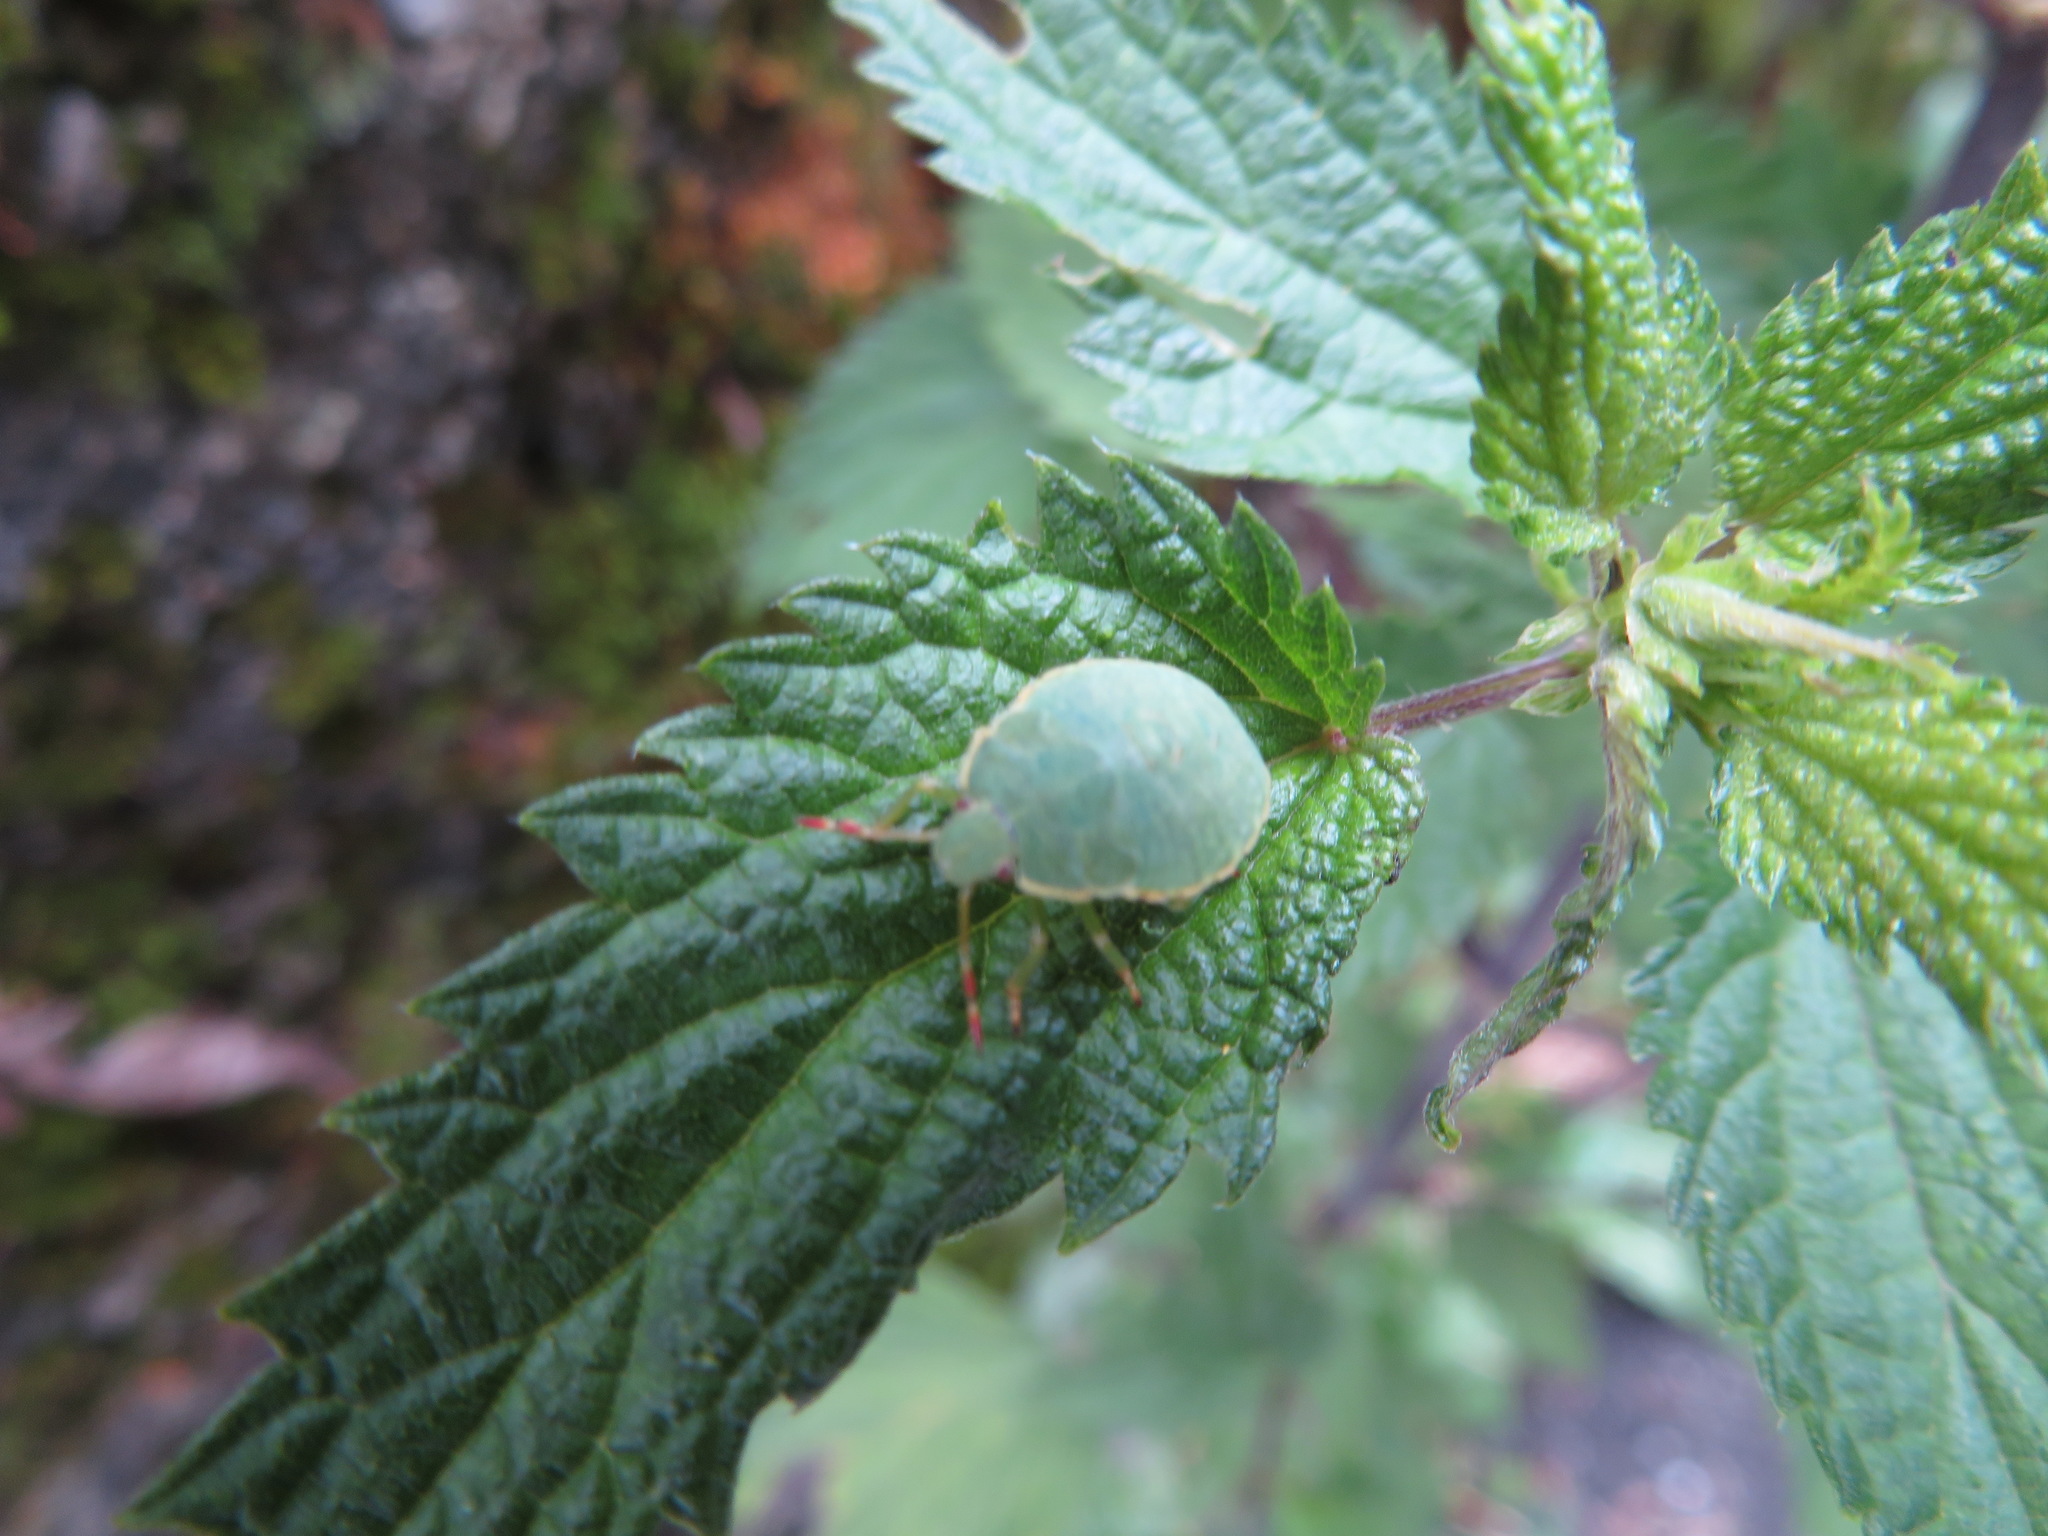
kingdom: Animalia
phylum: Arthropoda
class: Insecta
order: Hemiptera
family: Pentatomidae
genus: Palomena
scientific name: Palomena prasina
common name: Green shieldbug
